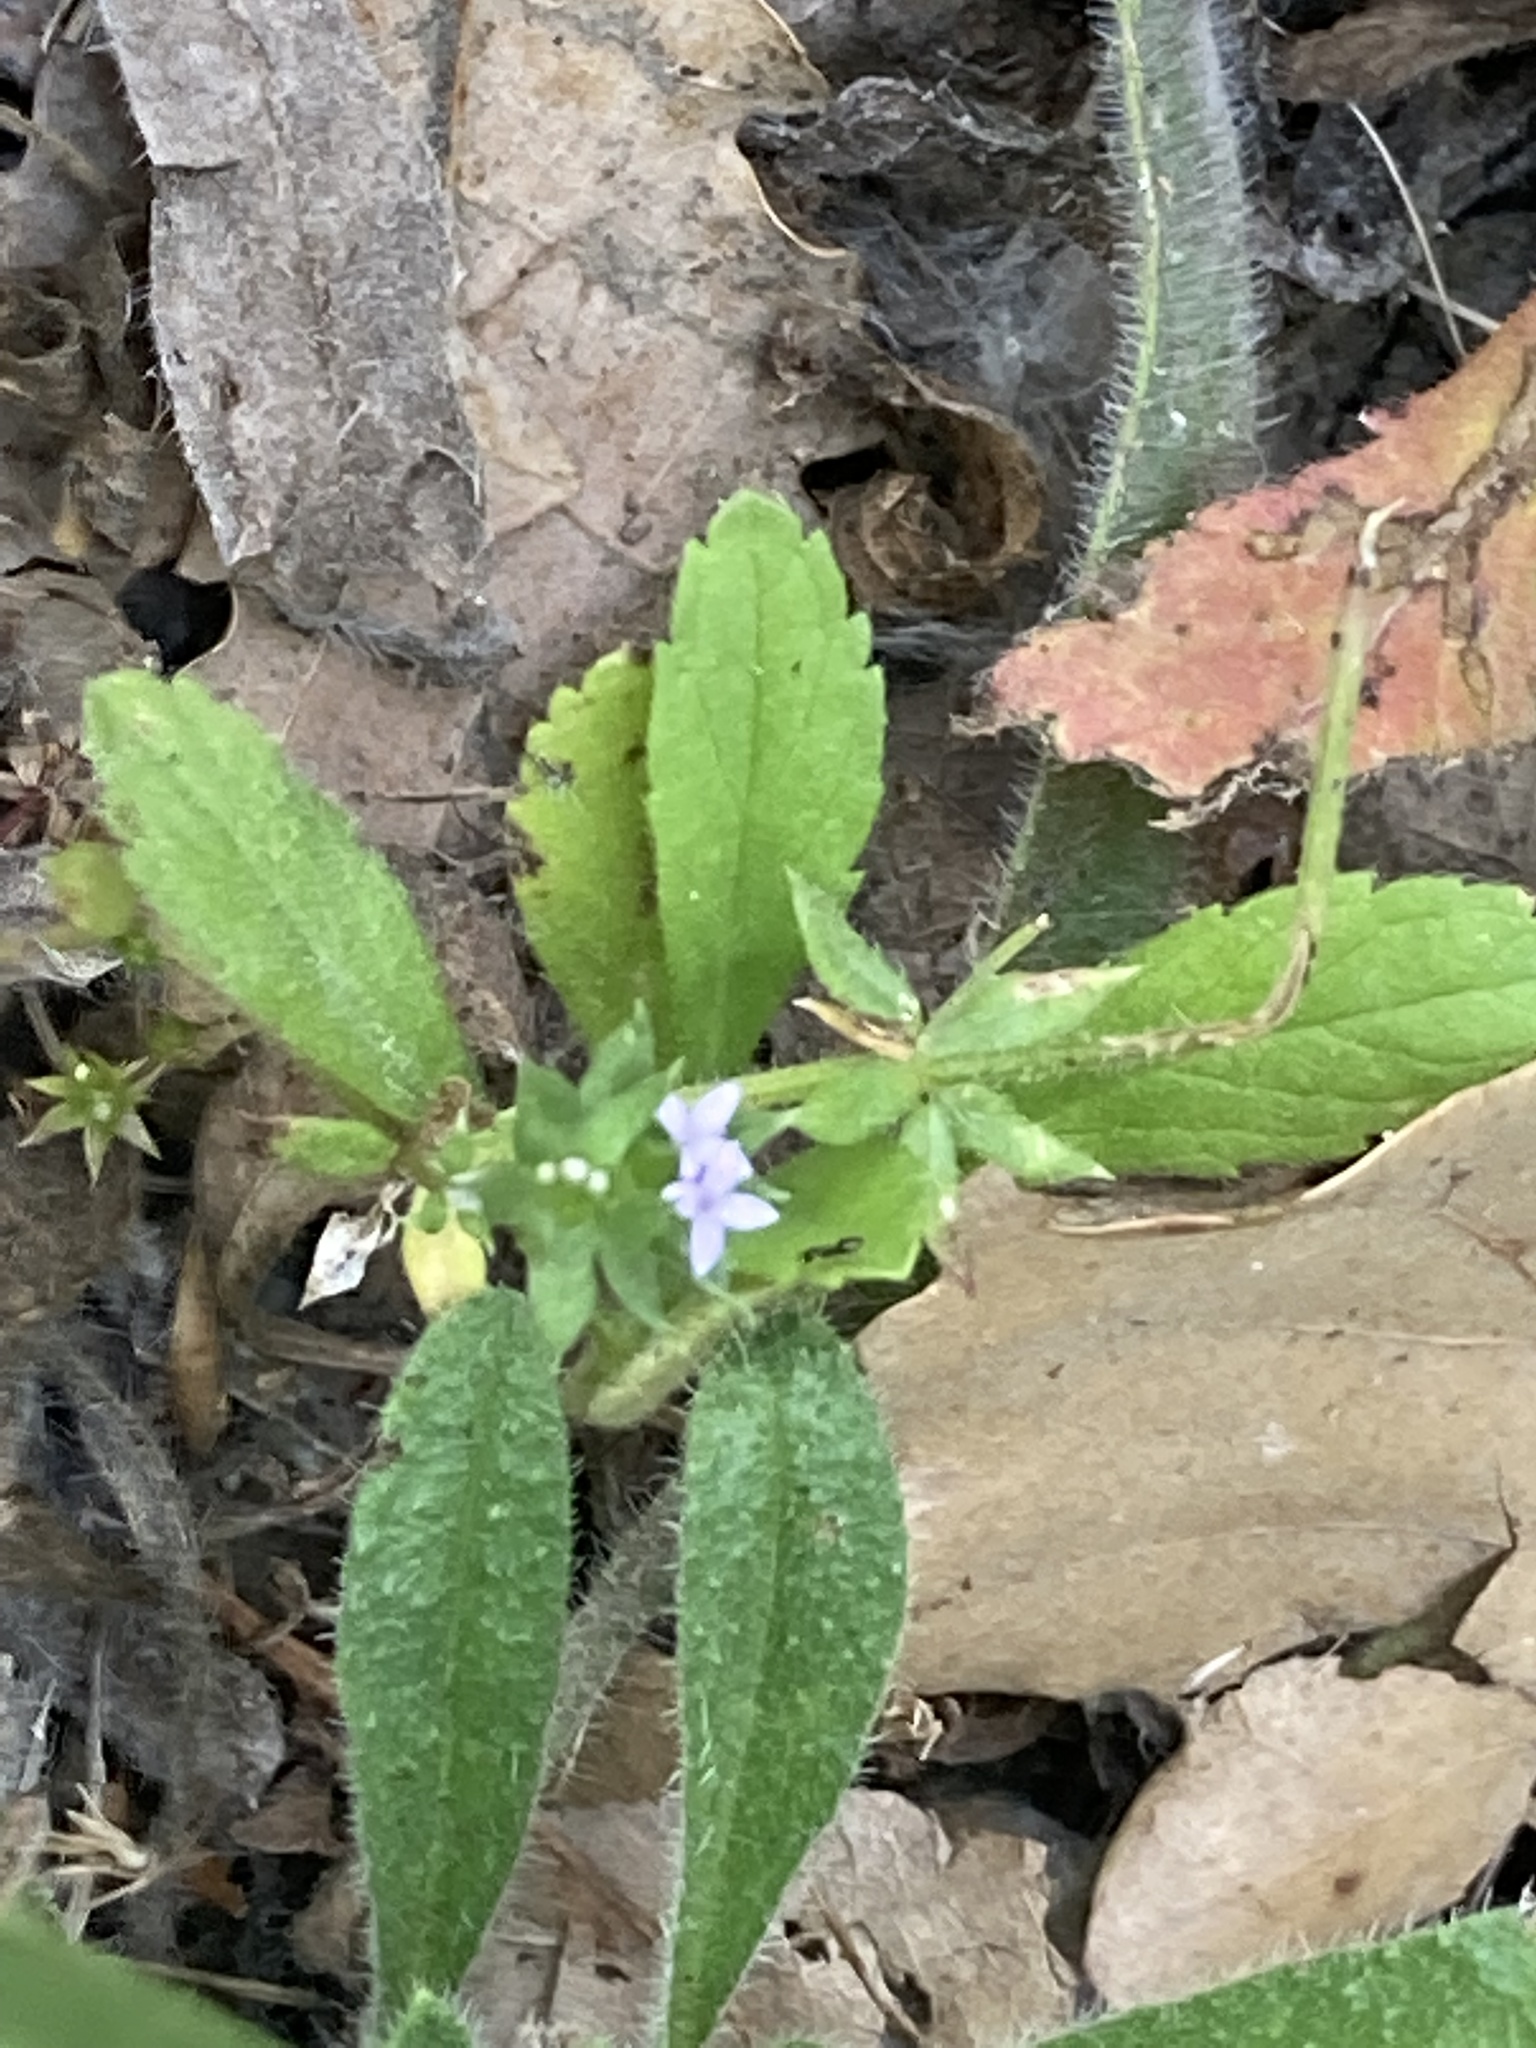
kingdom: Plantae
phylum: Tracheophyta
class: Magnoliopsida
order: Gentianales
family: Rubiaceae
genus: Sherardia
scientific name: Sherardia arvensis
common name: Field madder
